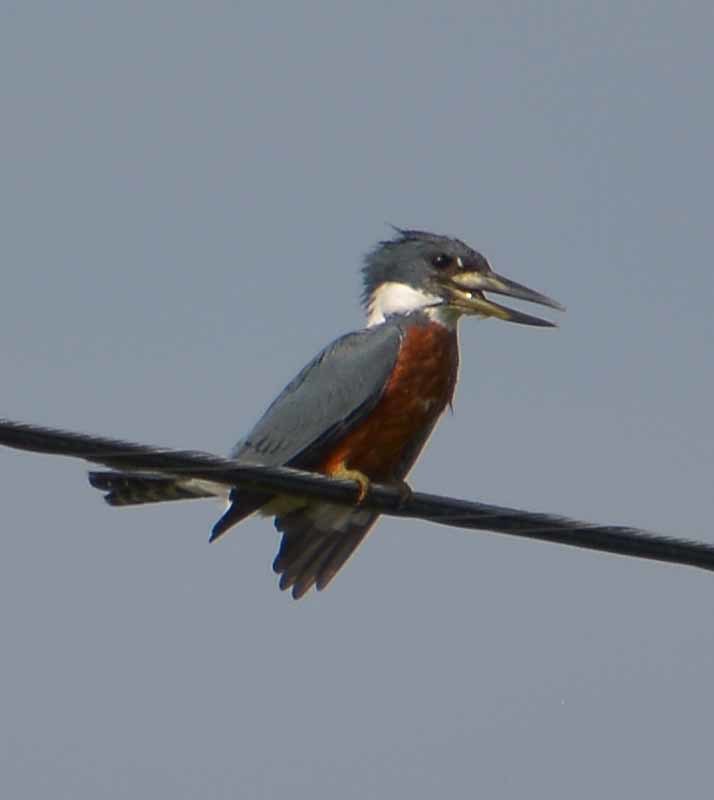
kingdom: Animalia
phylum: Chordata
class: Aves
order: Coraciiformes
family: Alcedinidae
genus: Megaceryle
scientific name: Megaceryle torquata
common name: Ringed kingfisher
